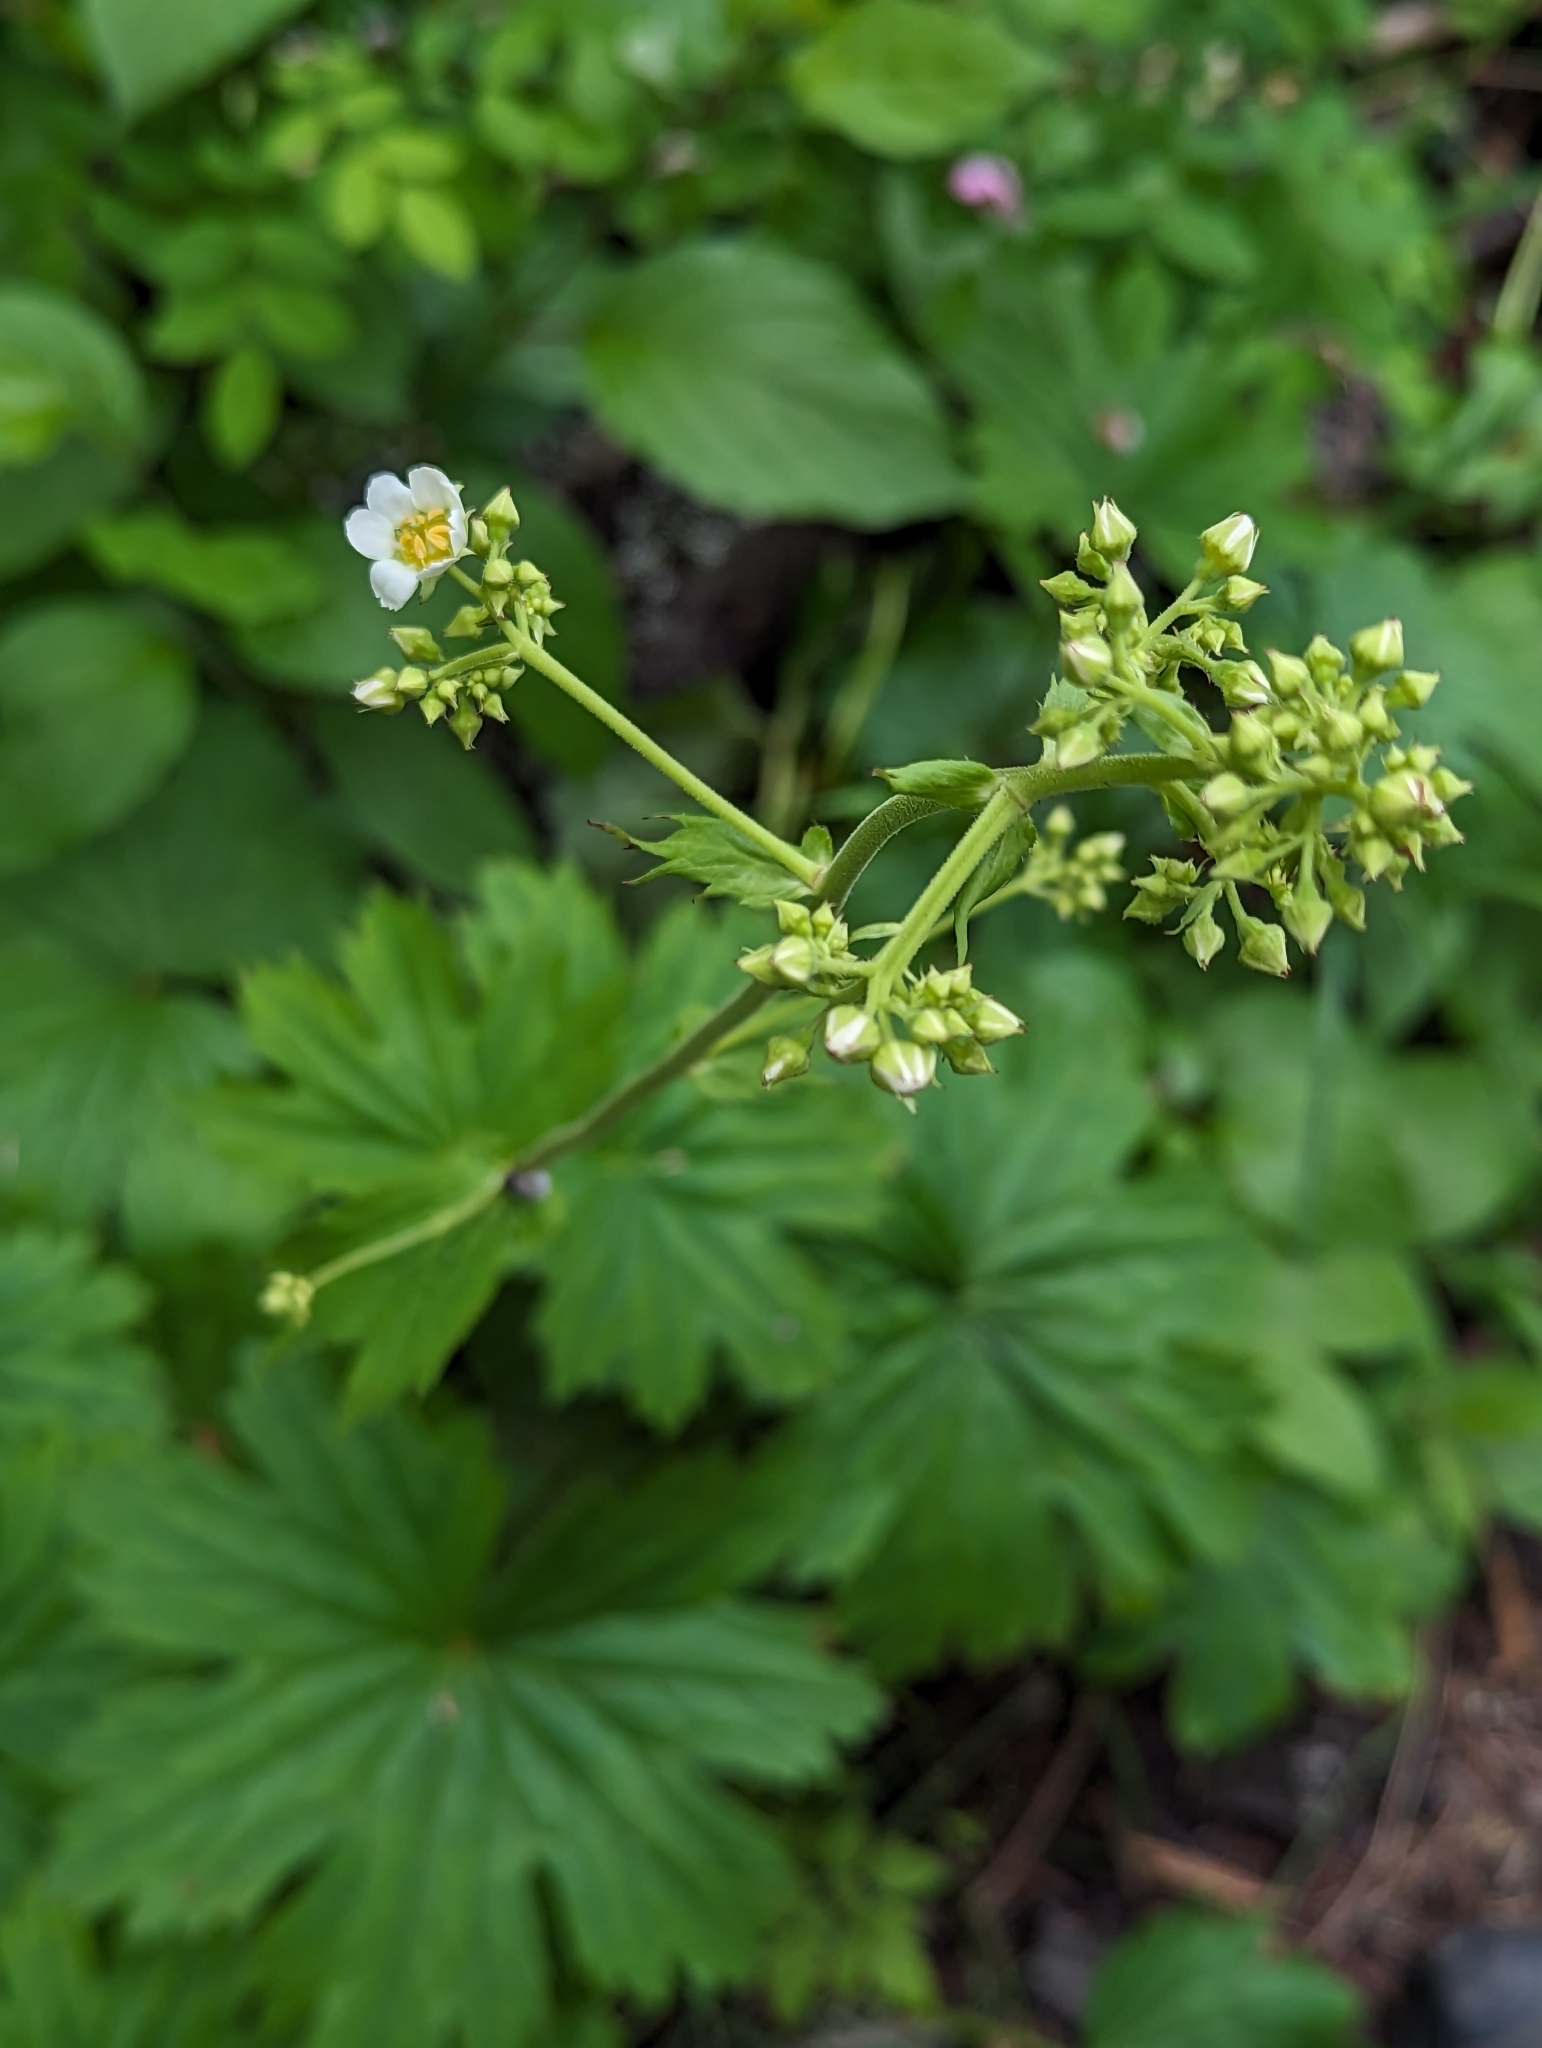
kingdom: Plantae
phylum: Tracheophyta
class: Magnoliopsida
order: Saxifragales
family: Saxifragaceae
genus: Boykinia
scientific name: Boykinia major
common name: Large boykinia
